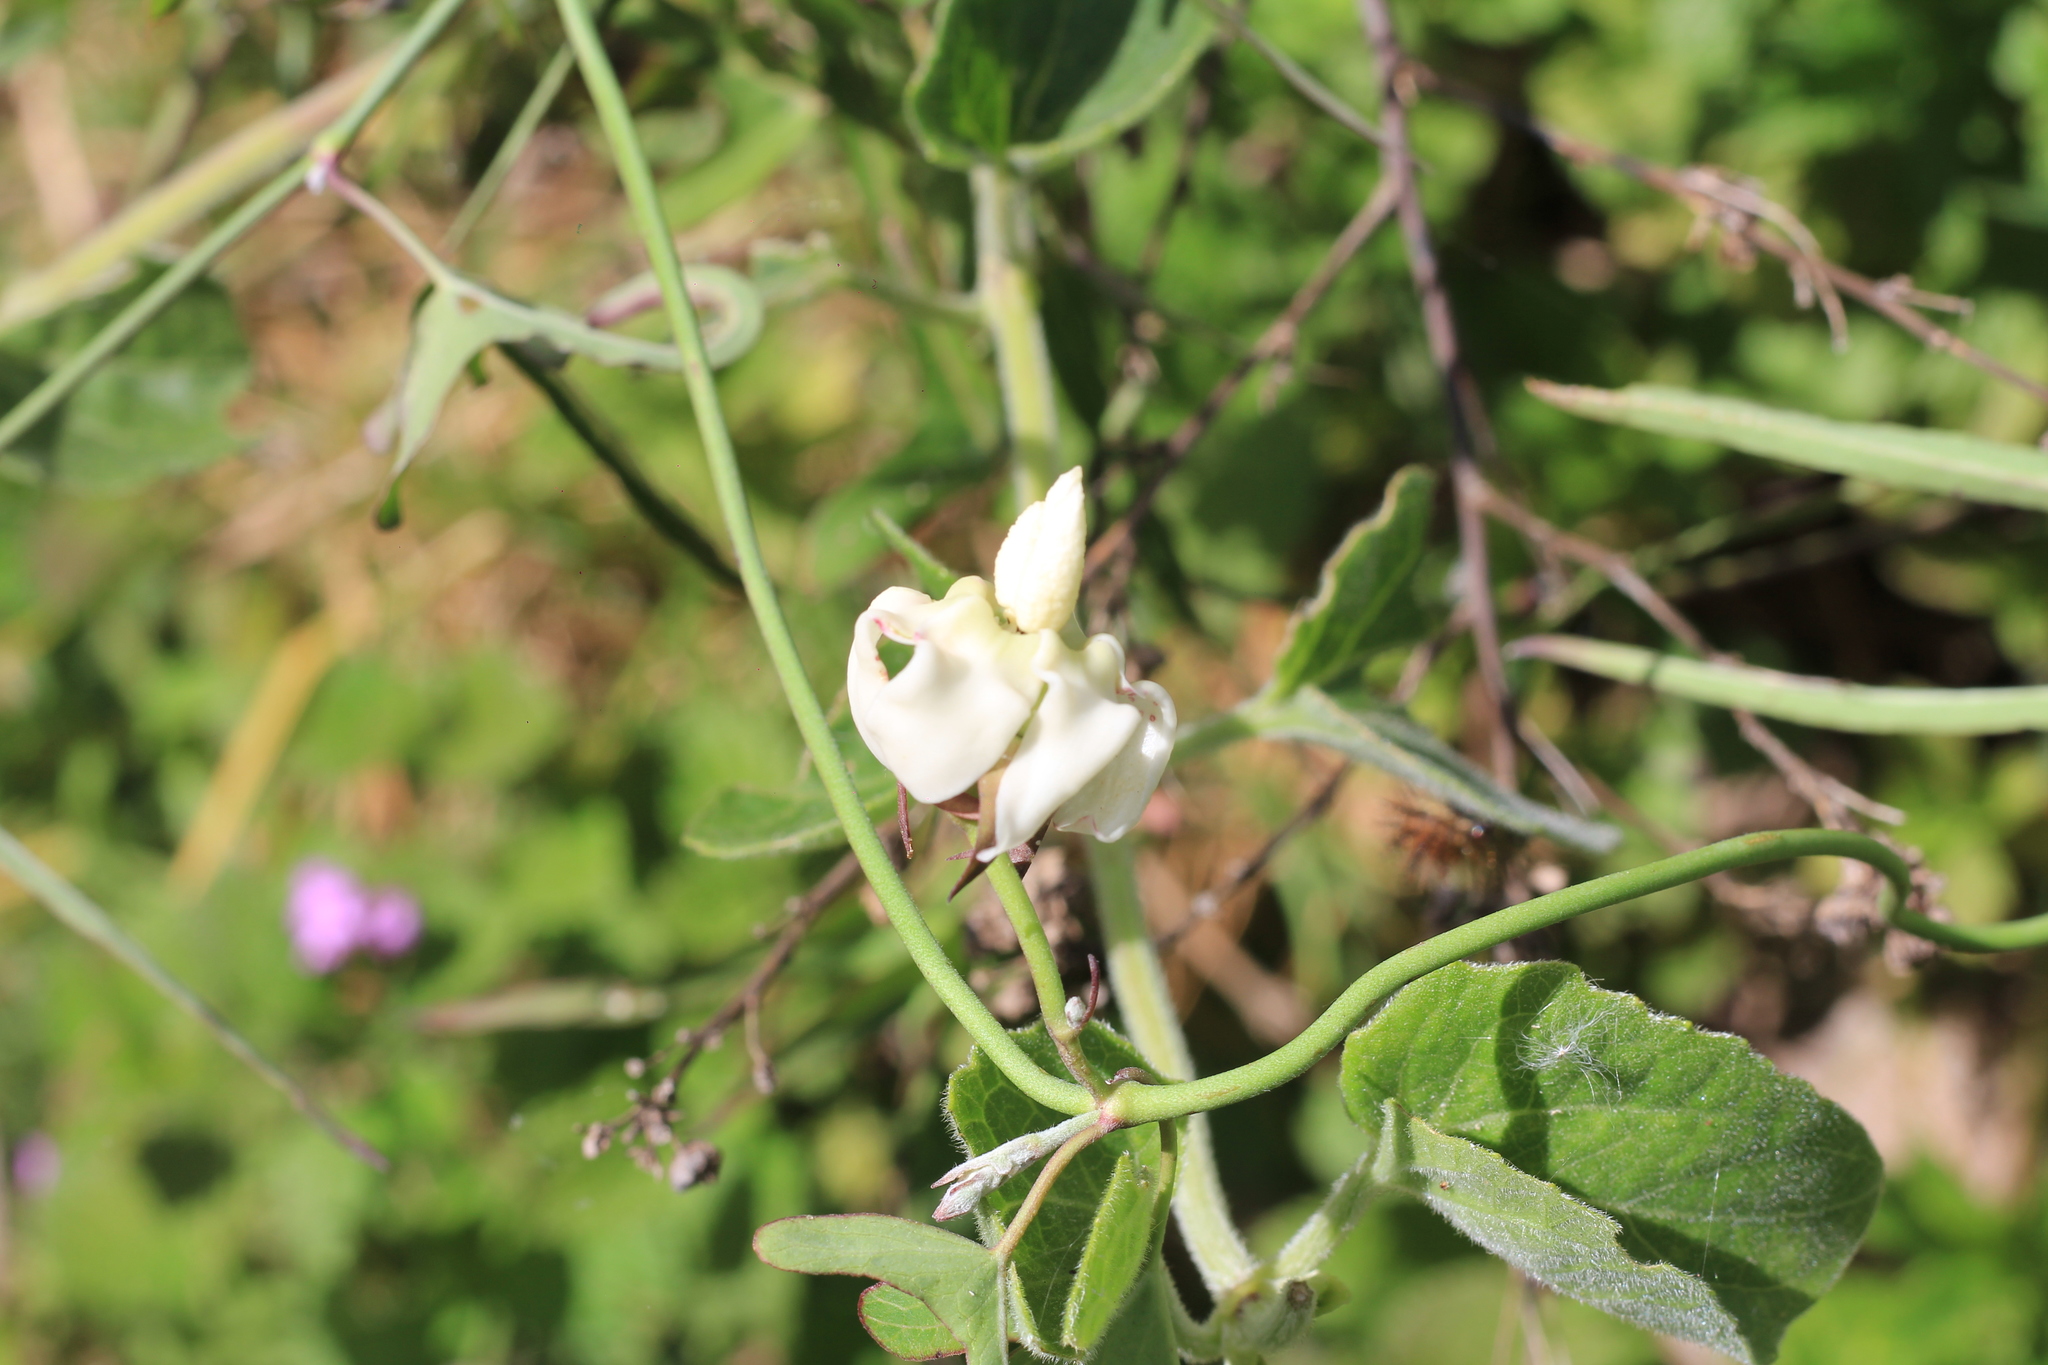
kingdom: Plantae
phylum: Tracheophyta
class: Magnoliopsida
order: Gentianales
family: Apocynaceae
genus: Araujia
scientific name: Araujia angustifolia
